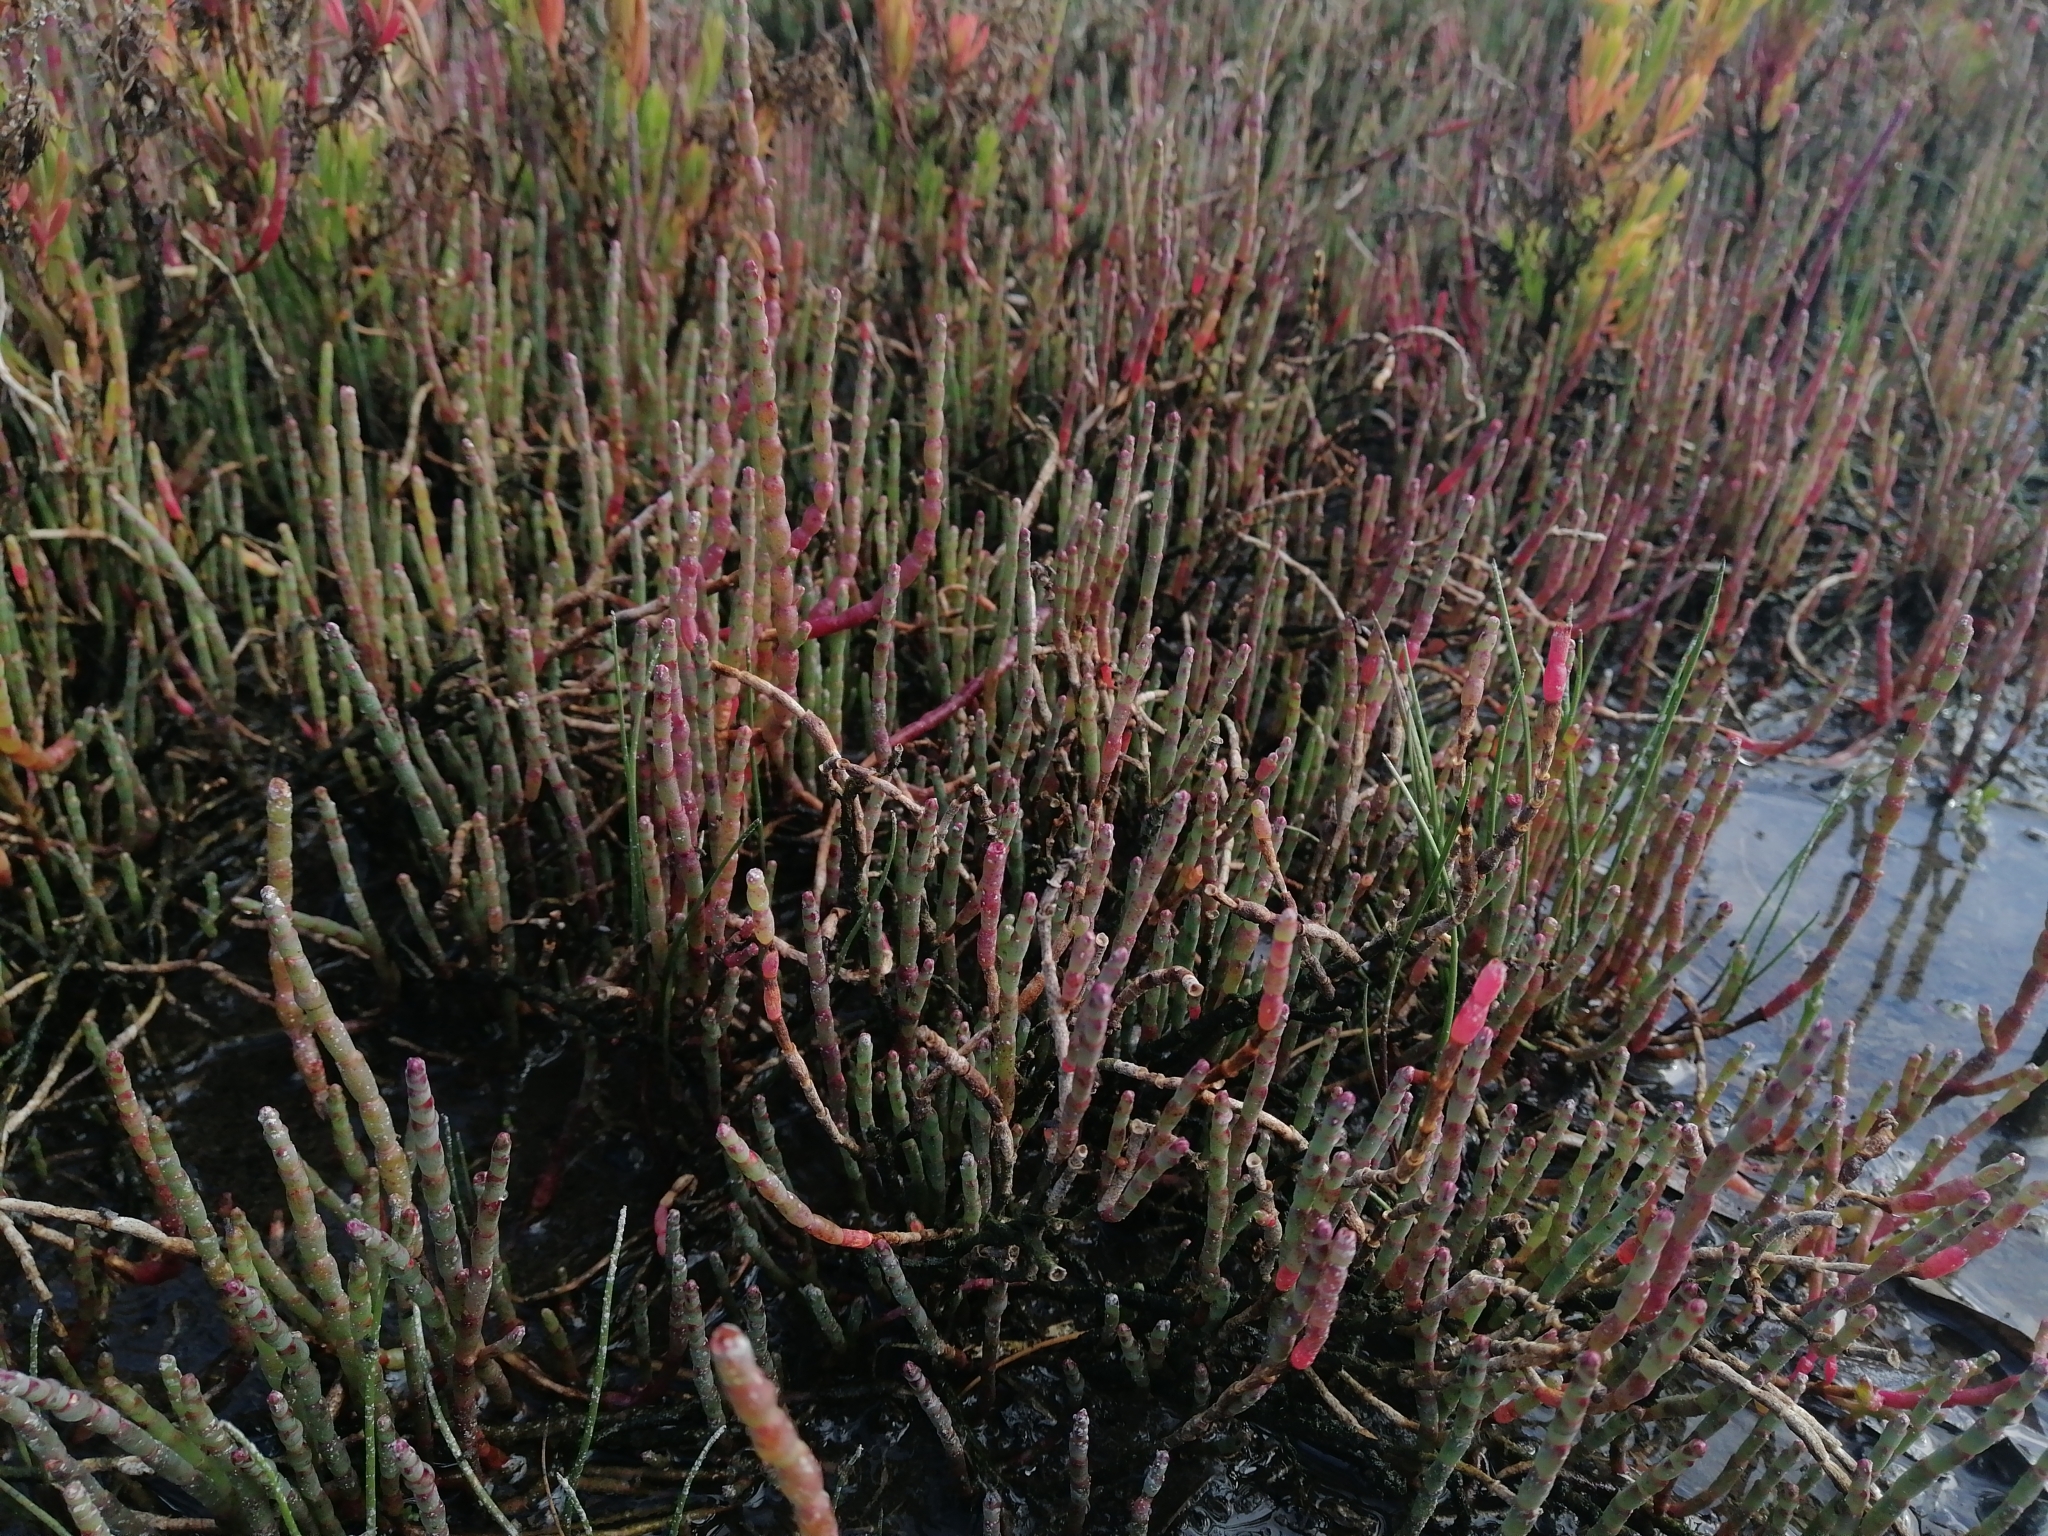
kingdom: Plantae
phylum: Tracheophyta
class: Magnoliopsida
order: Caryophyllales
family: Amaranthaceae
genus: Salicornia
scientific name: Salicornia quinqueflora
